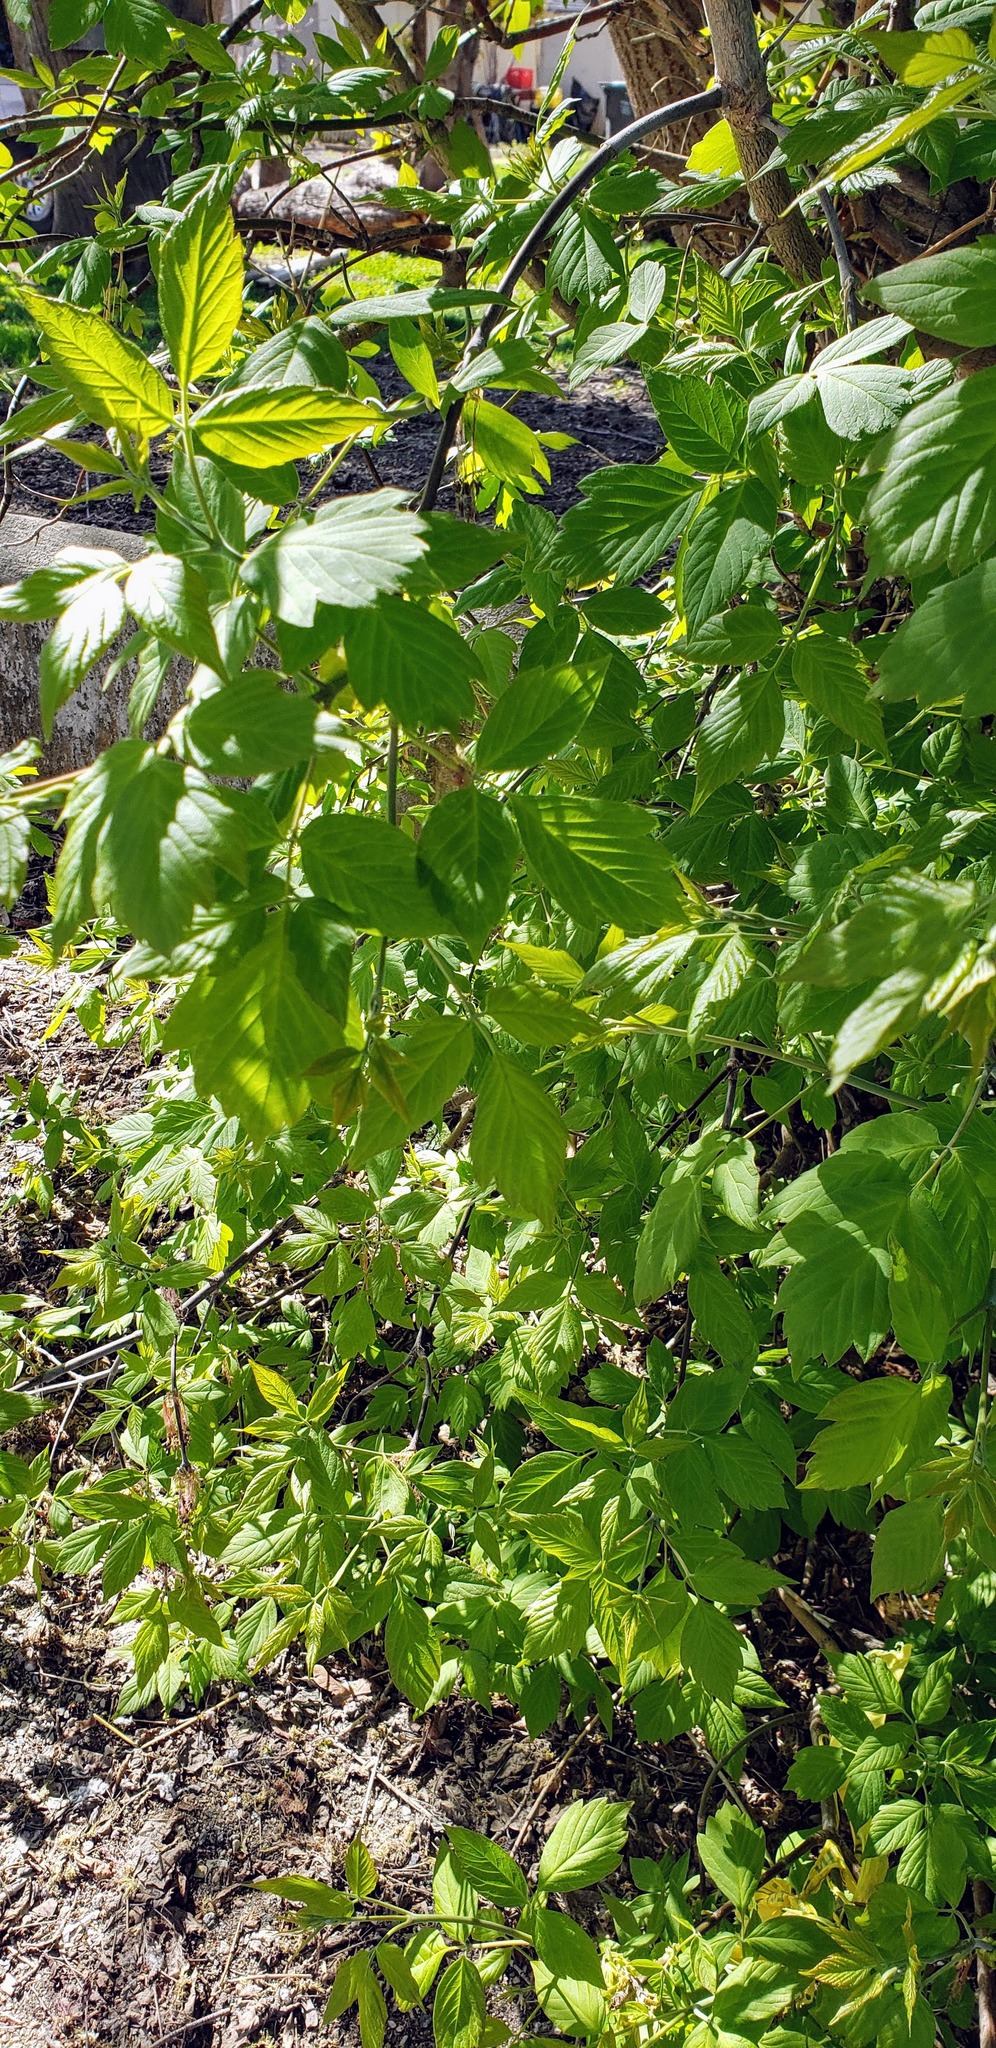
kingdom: Plantae
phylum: Tracheophyta
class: Magnoliopsida
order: Sapindales
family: Sapindaceae
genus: Acer
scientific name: Acer negundo
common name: Ashleaf maple
